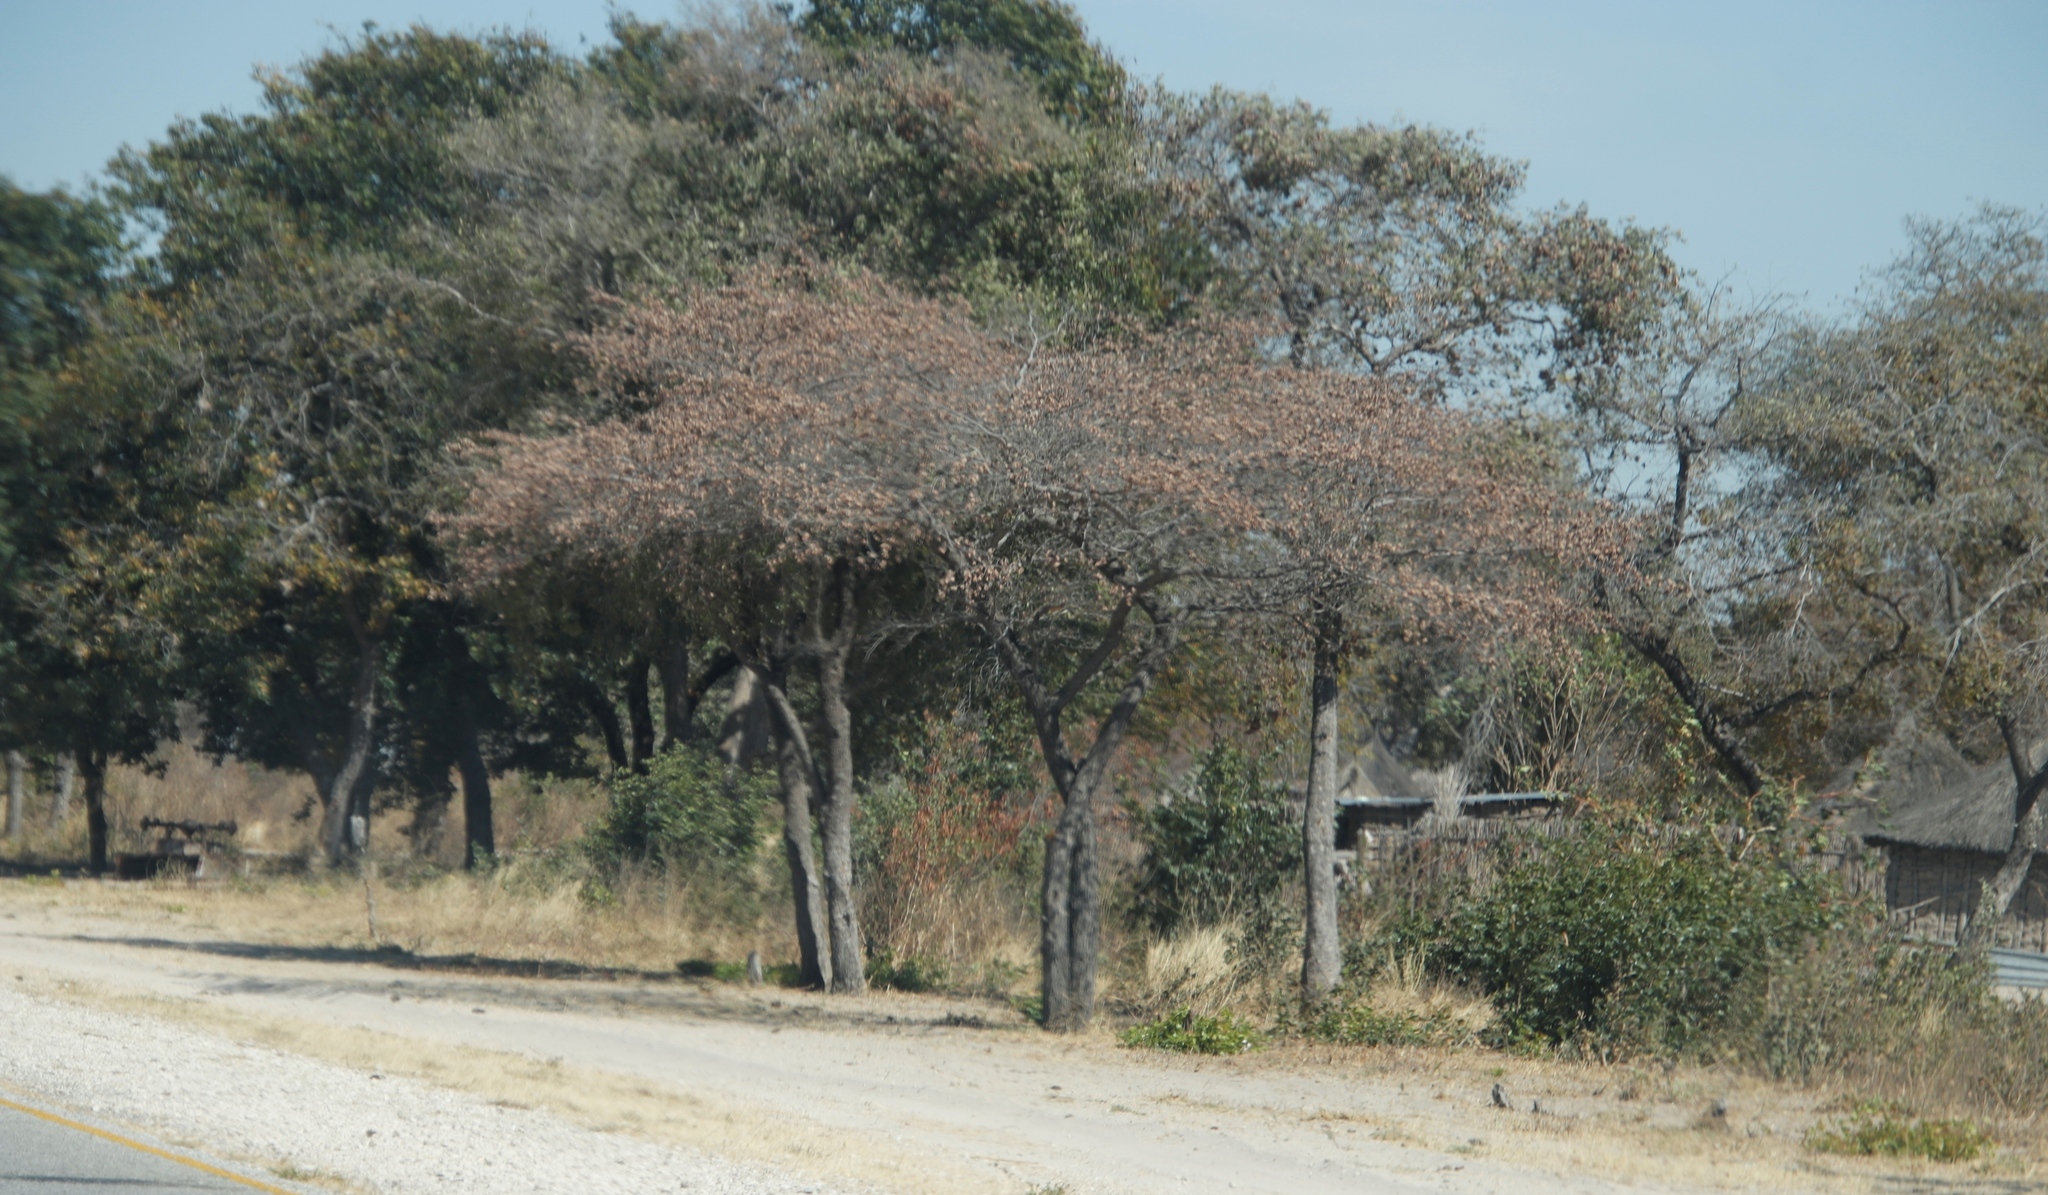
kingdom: Plantae
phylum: Tracheophyta
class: Magnoliopsida
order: Myrtales
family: Combretaceae
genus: Terminalia
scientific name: Terminalia sericea
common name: Clusterleaf
